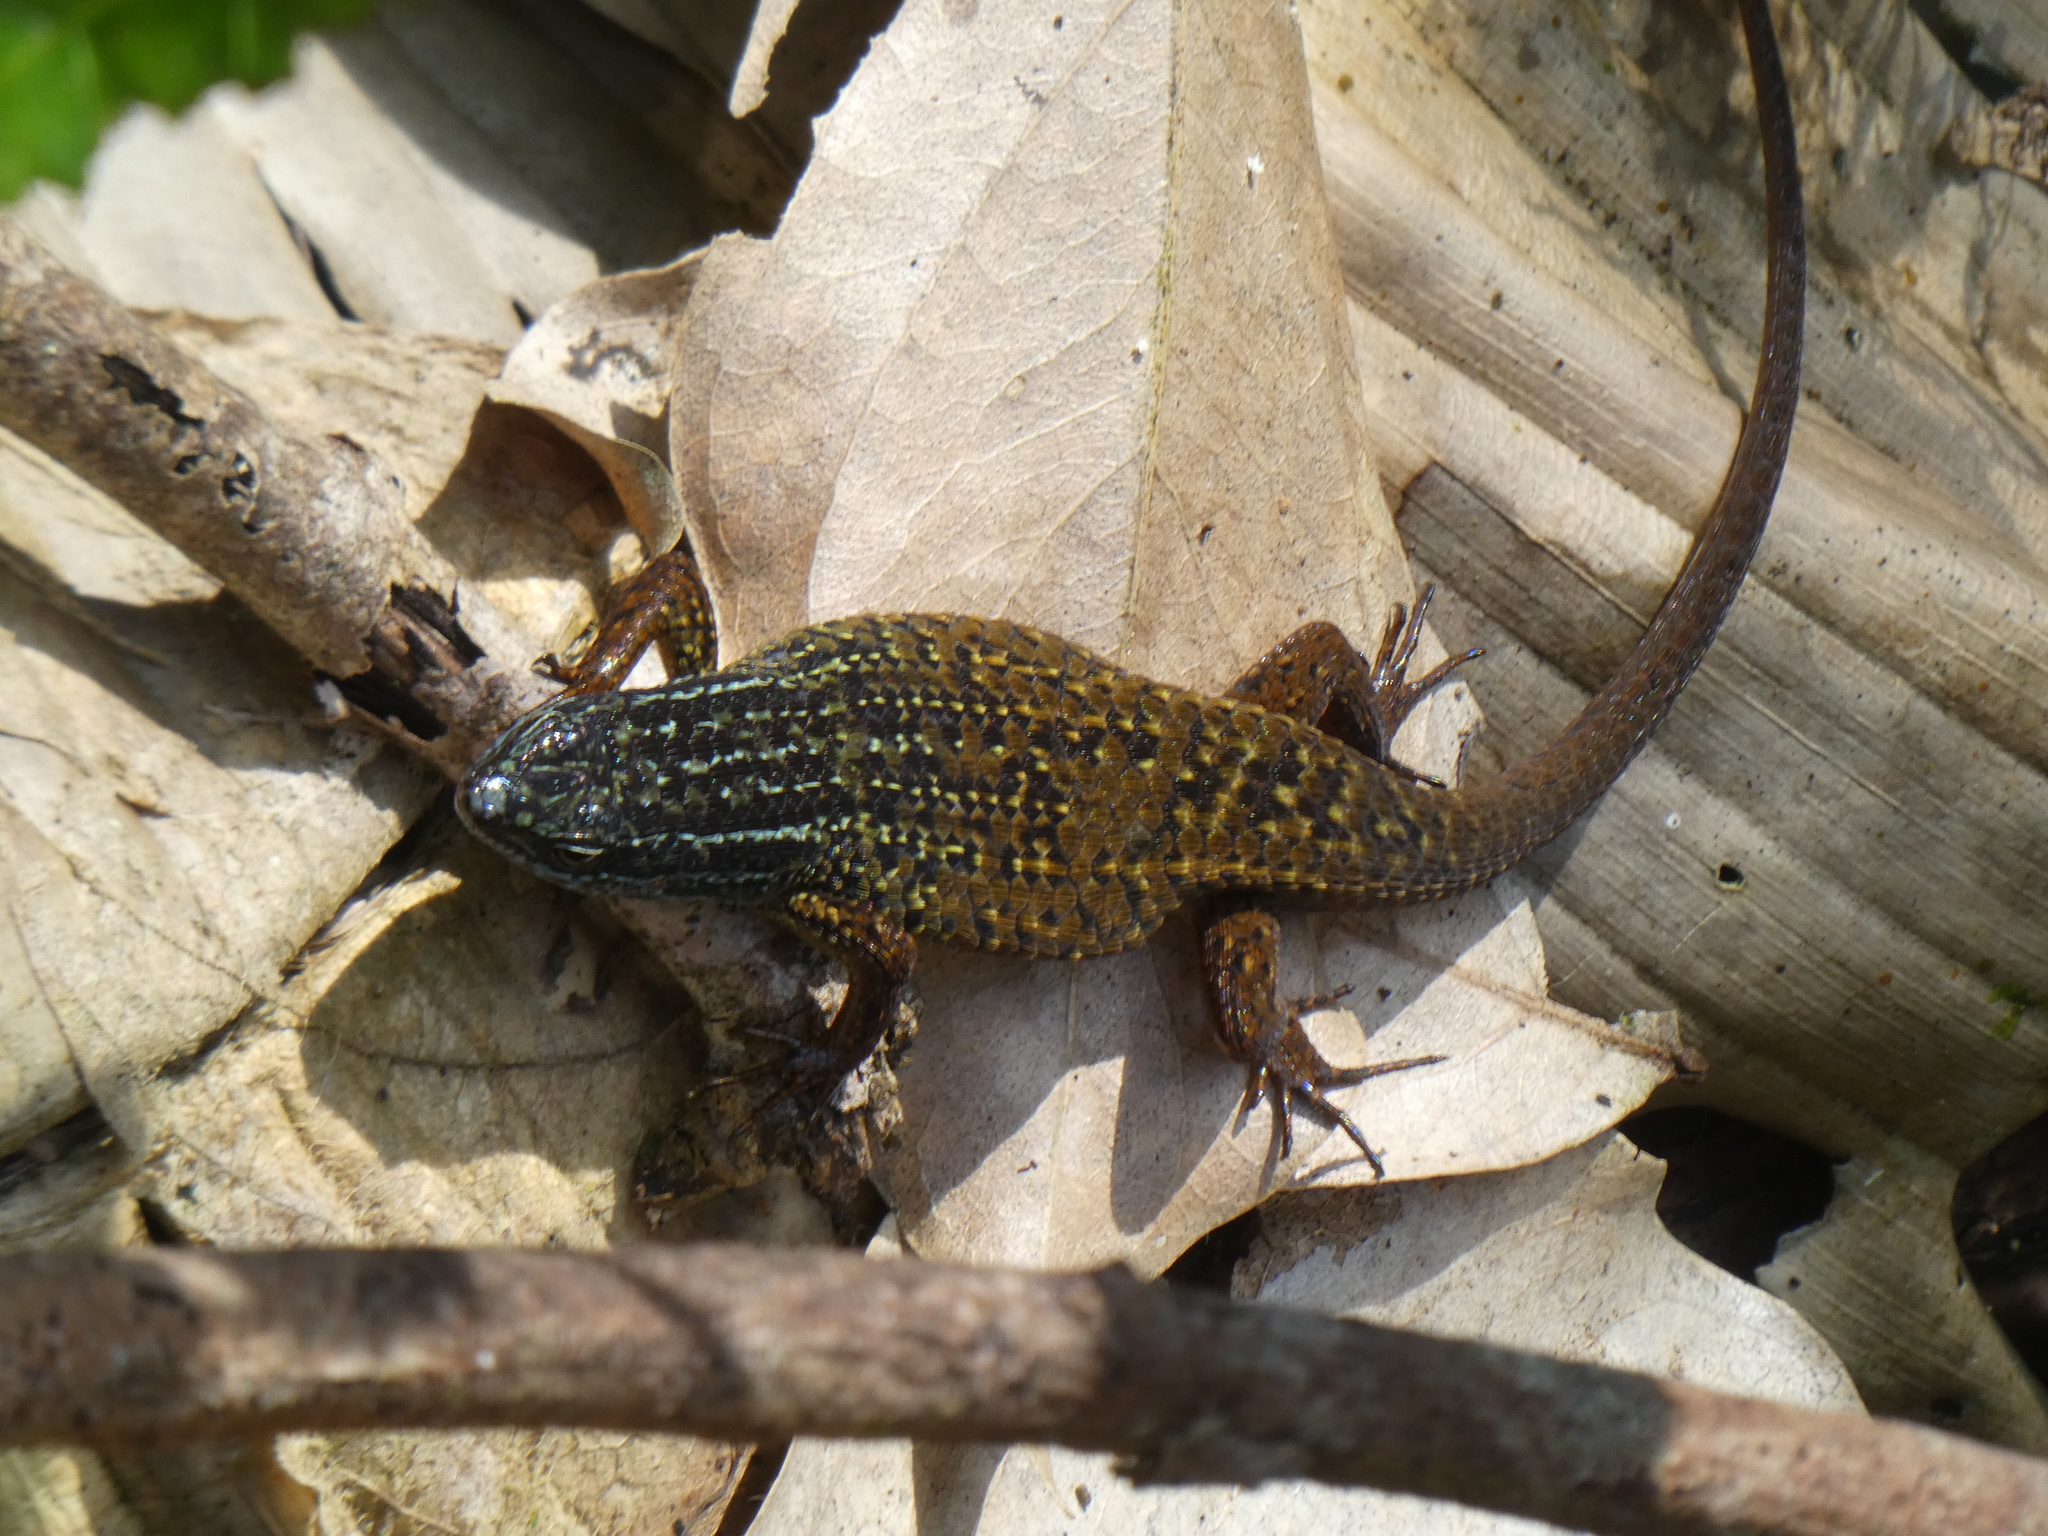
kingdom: Animalia
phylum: Chordata
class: Squamata
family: Scincidae
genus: Eutropis
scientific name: Eutropis rugifera
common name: Rough-scaled sun skink
